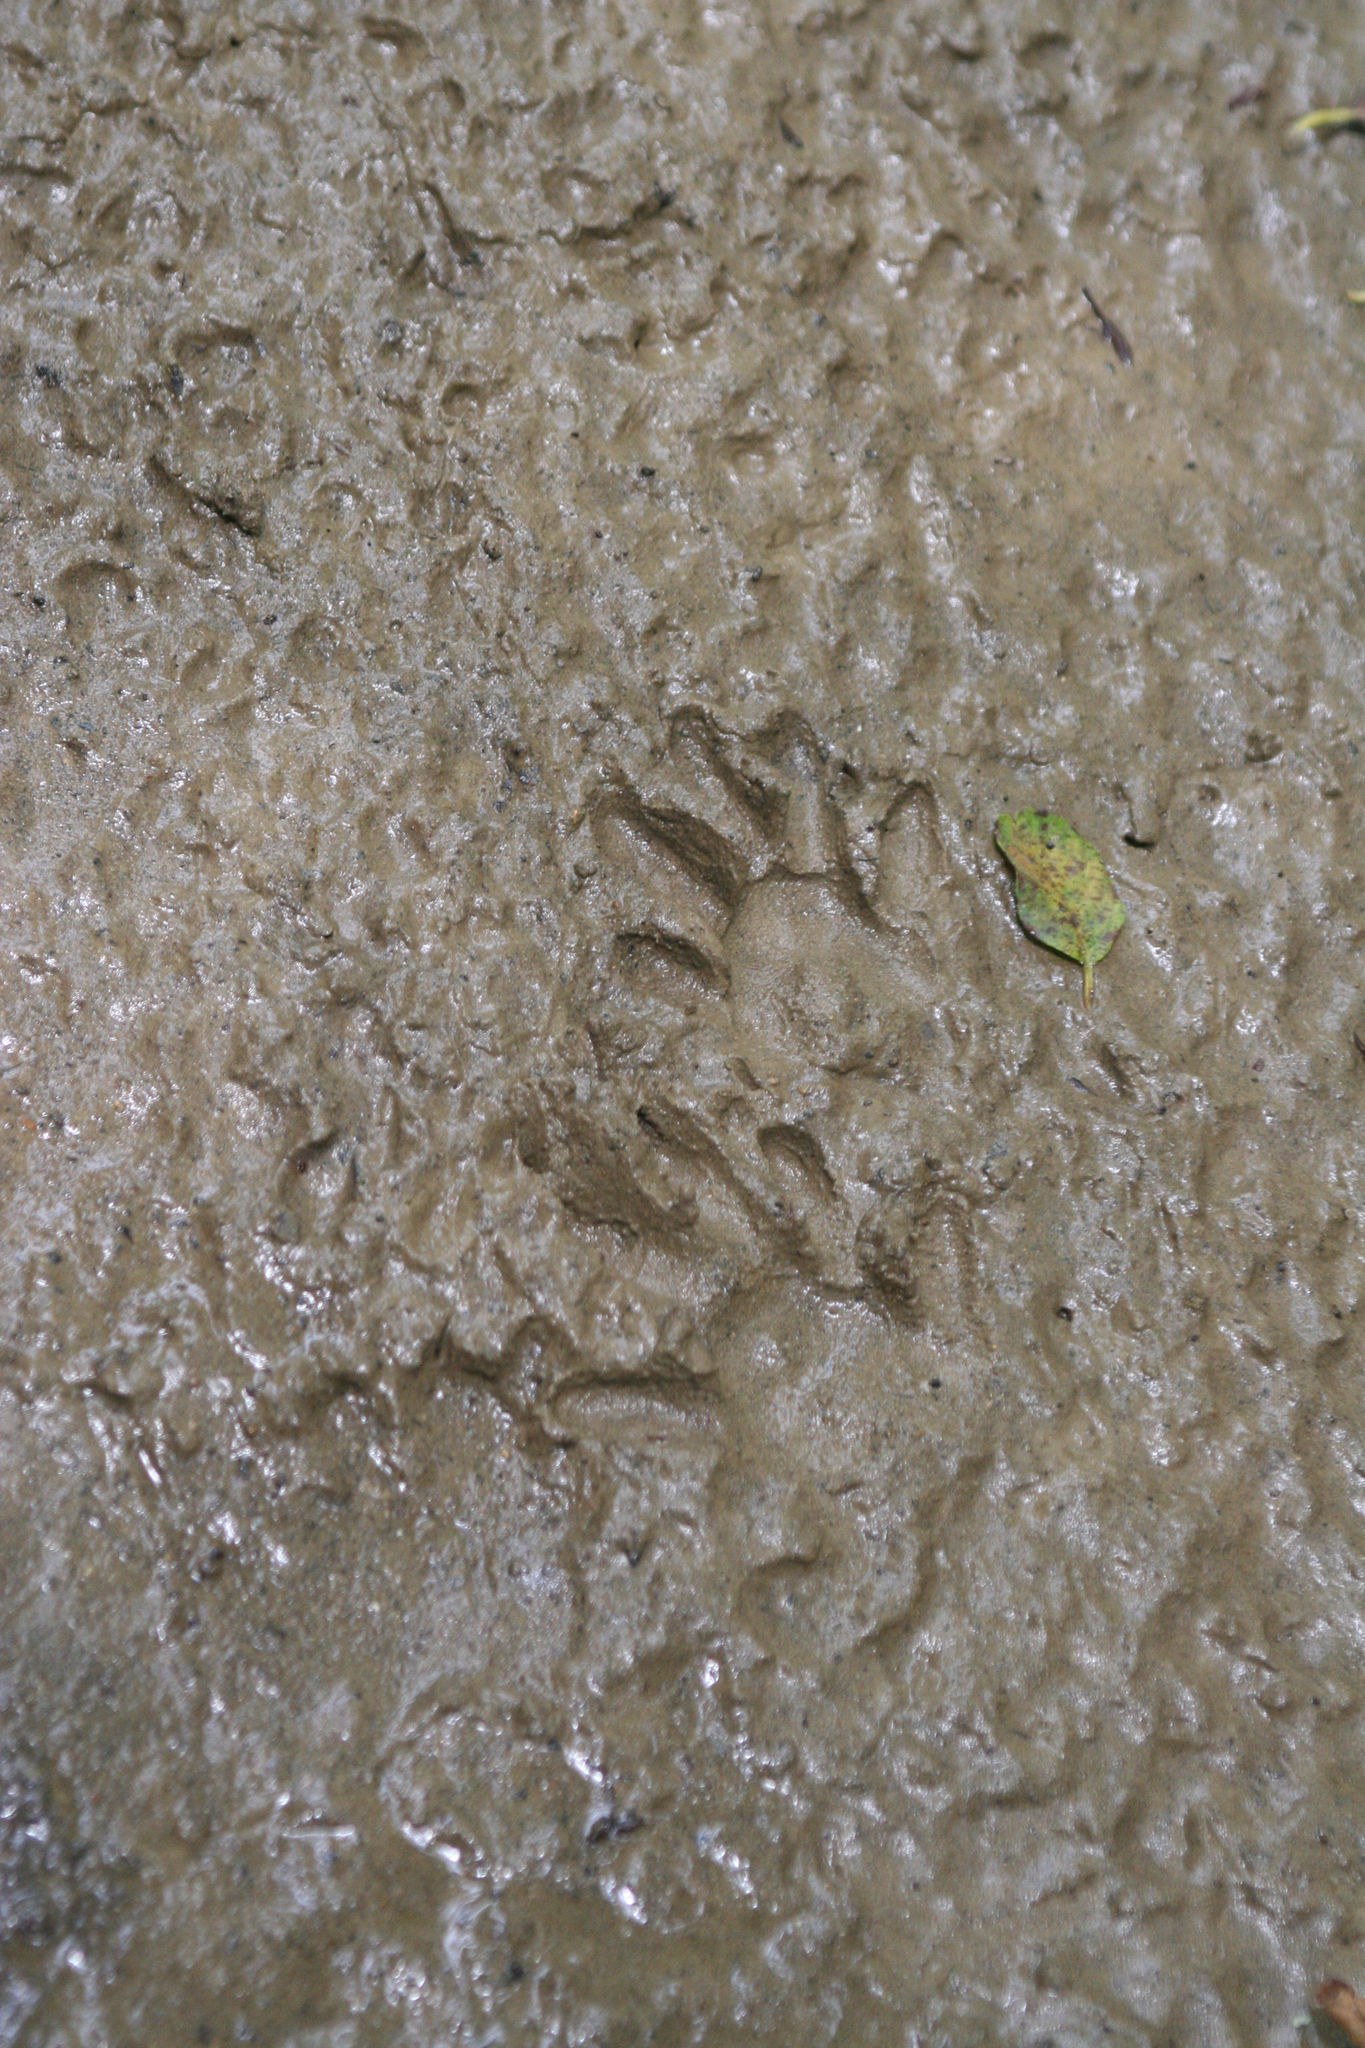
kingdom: Animalia
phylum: Chordata
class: Mammalia
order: Carnivora
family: Procyonidae
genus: Procyon
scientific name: Procyon lotor
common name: Raccoon
